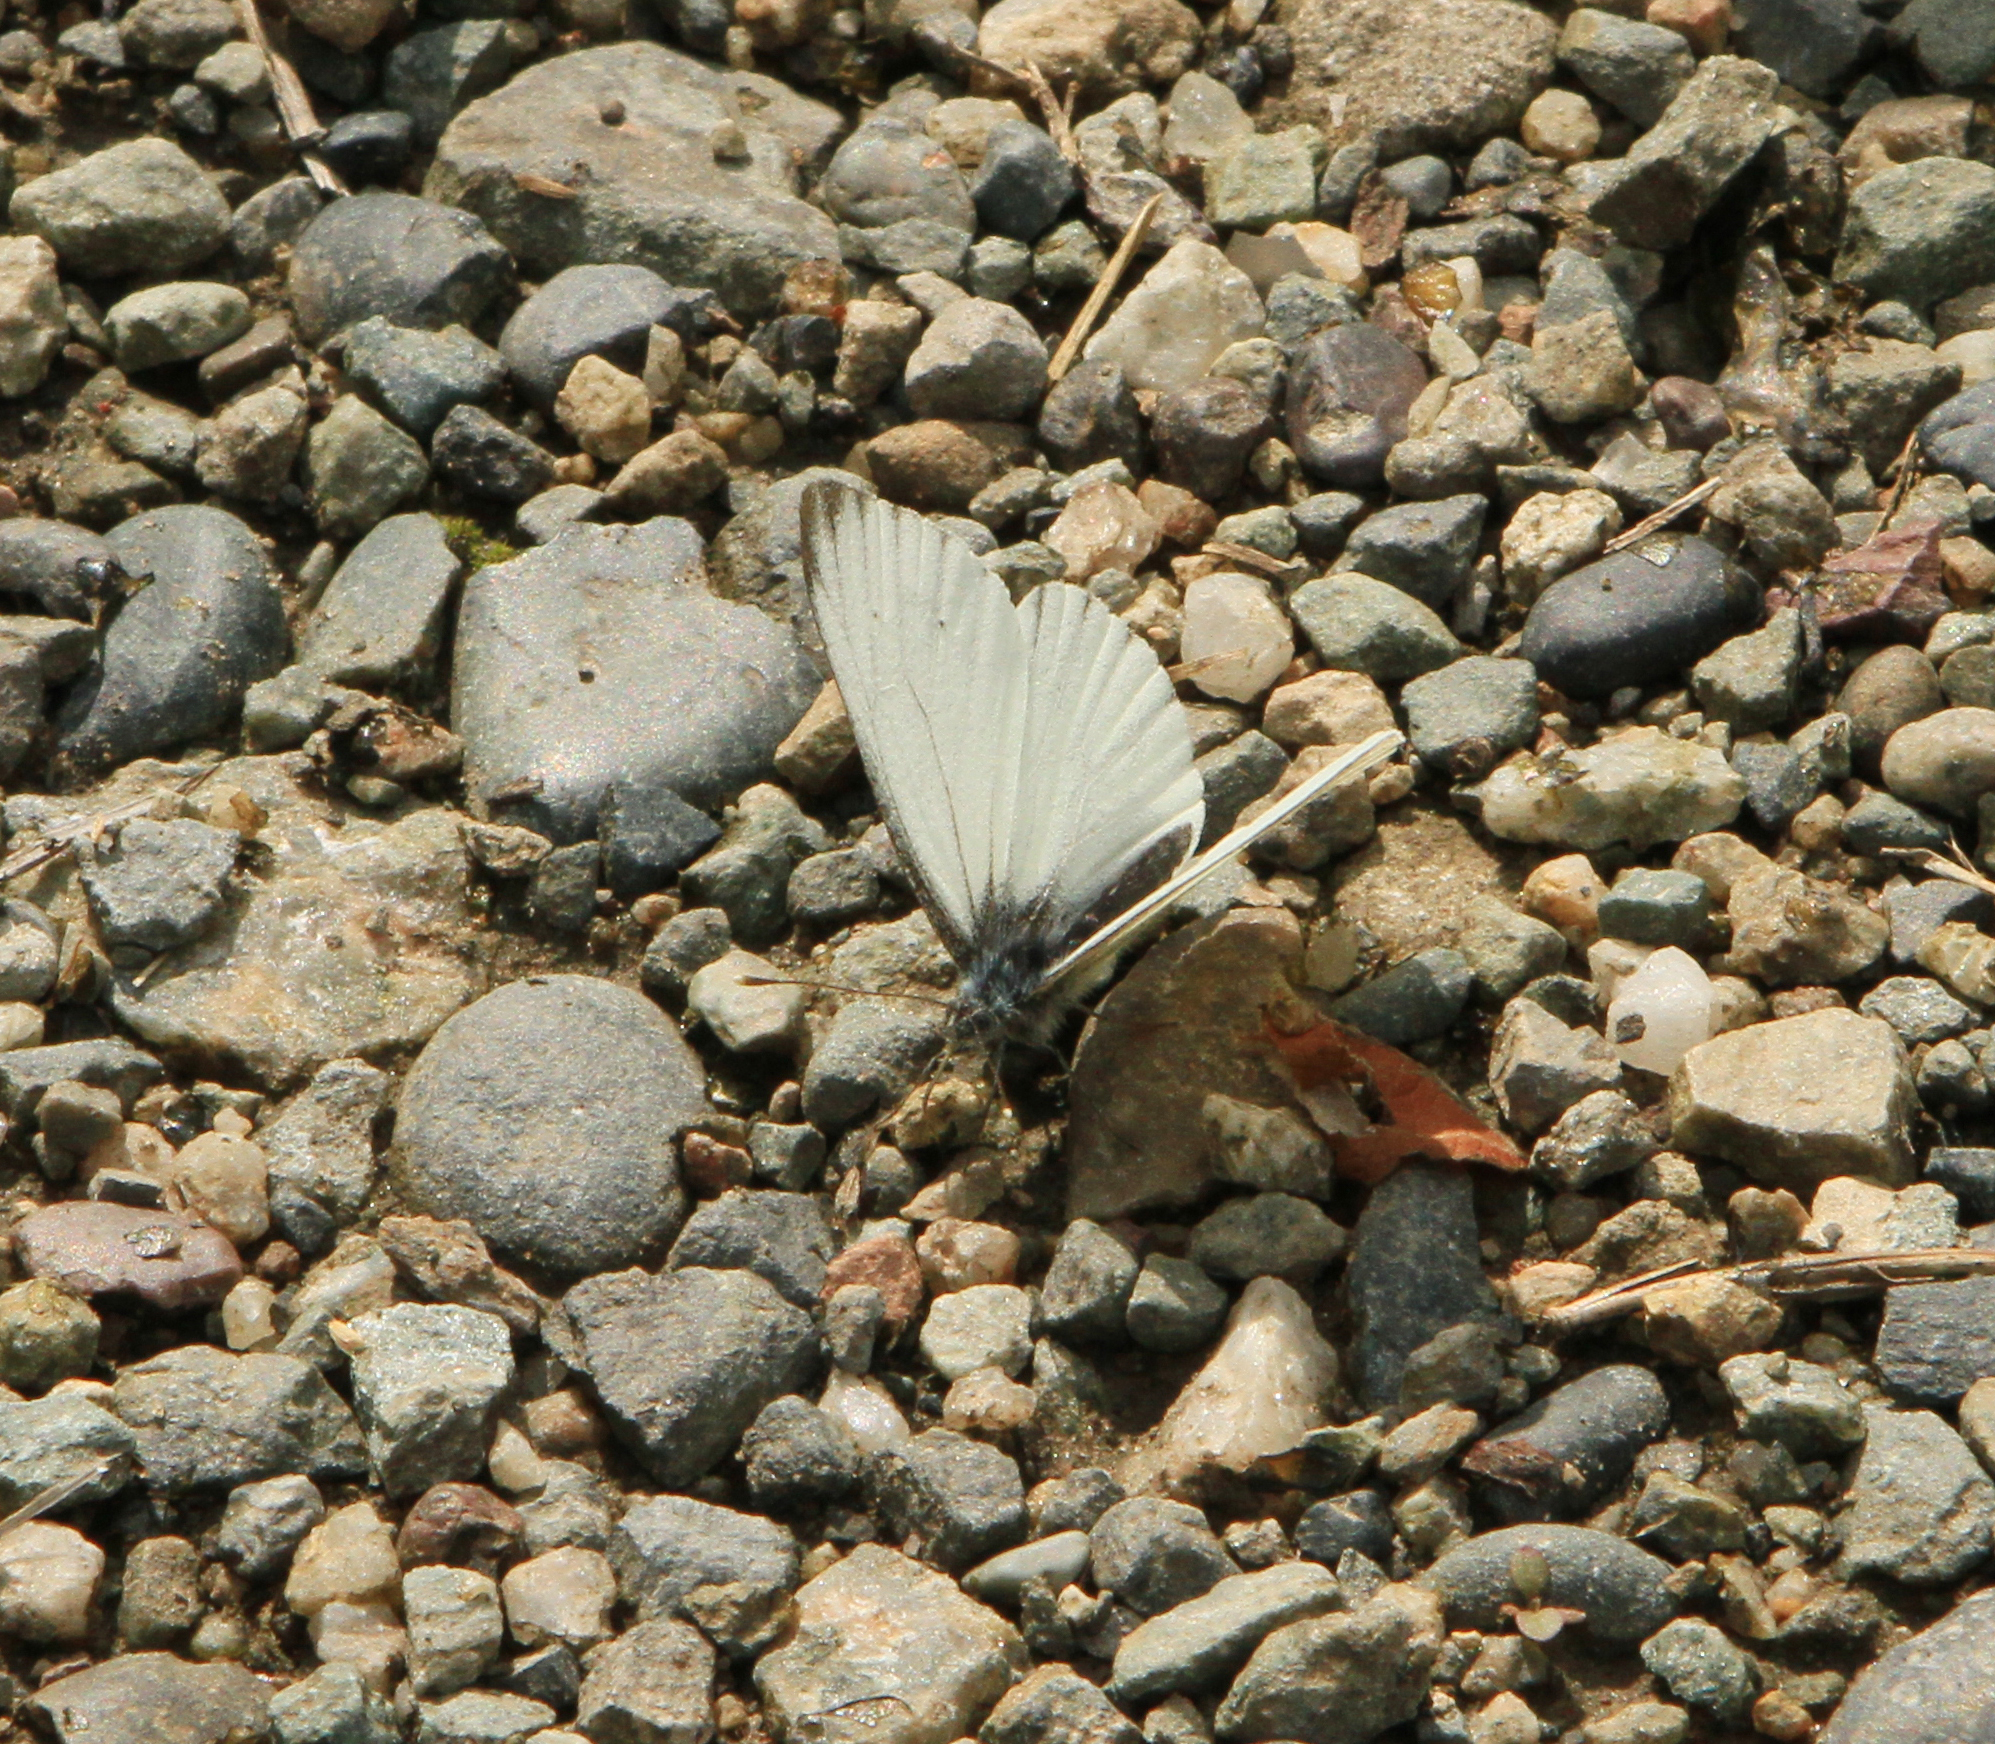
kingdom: Animalia
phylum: Arthropoda
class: Insecta
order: Lepidoptera
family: Pieridae
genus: Pieris
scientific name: Pieris napi
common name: Green-veined white
